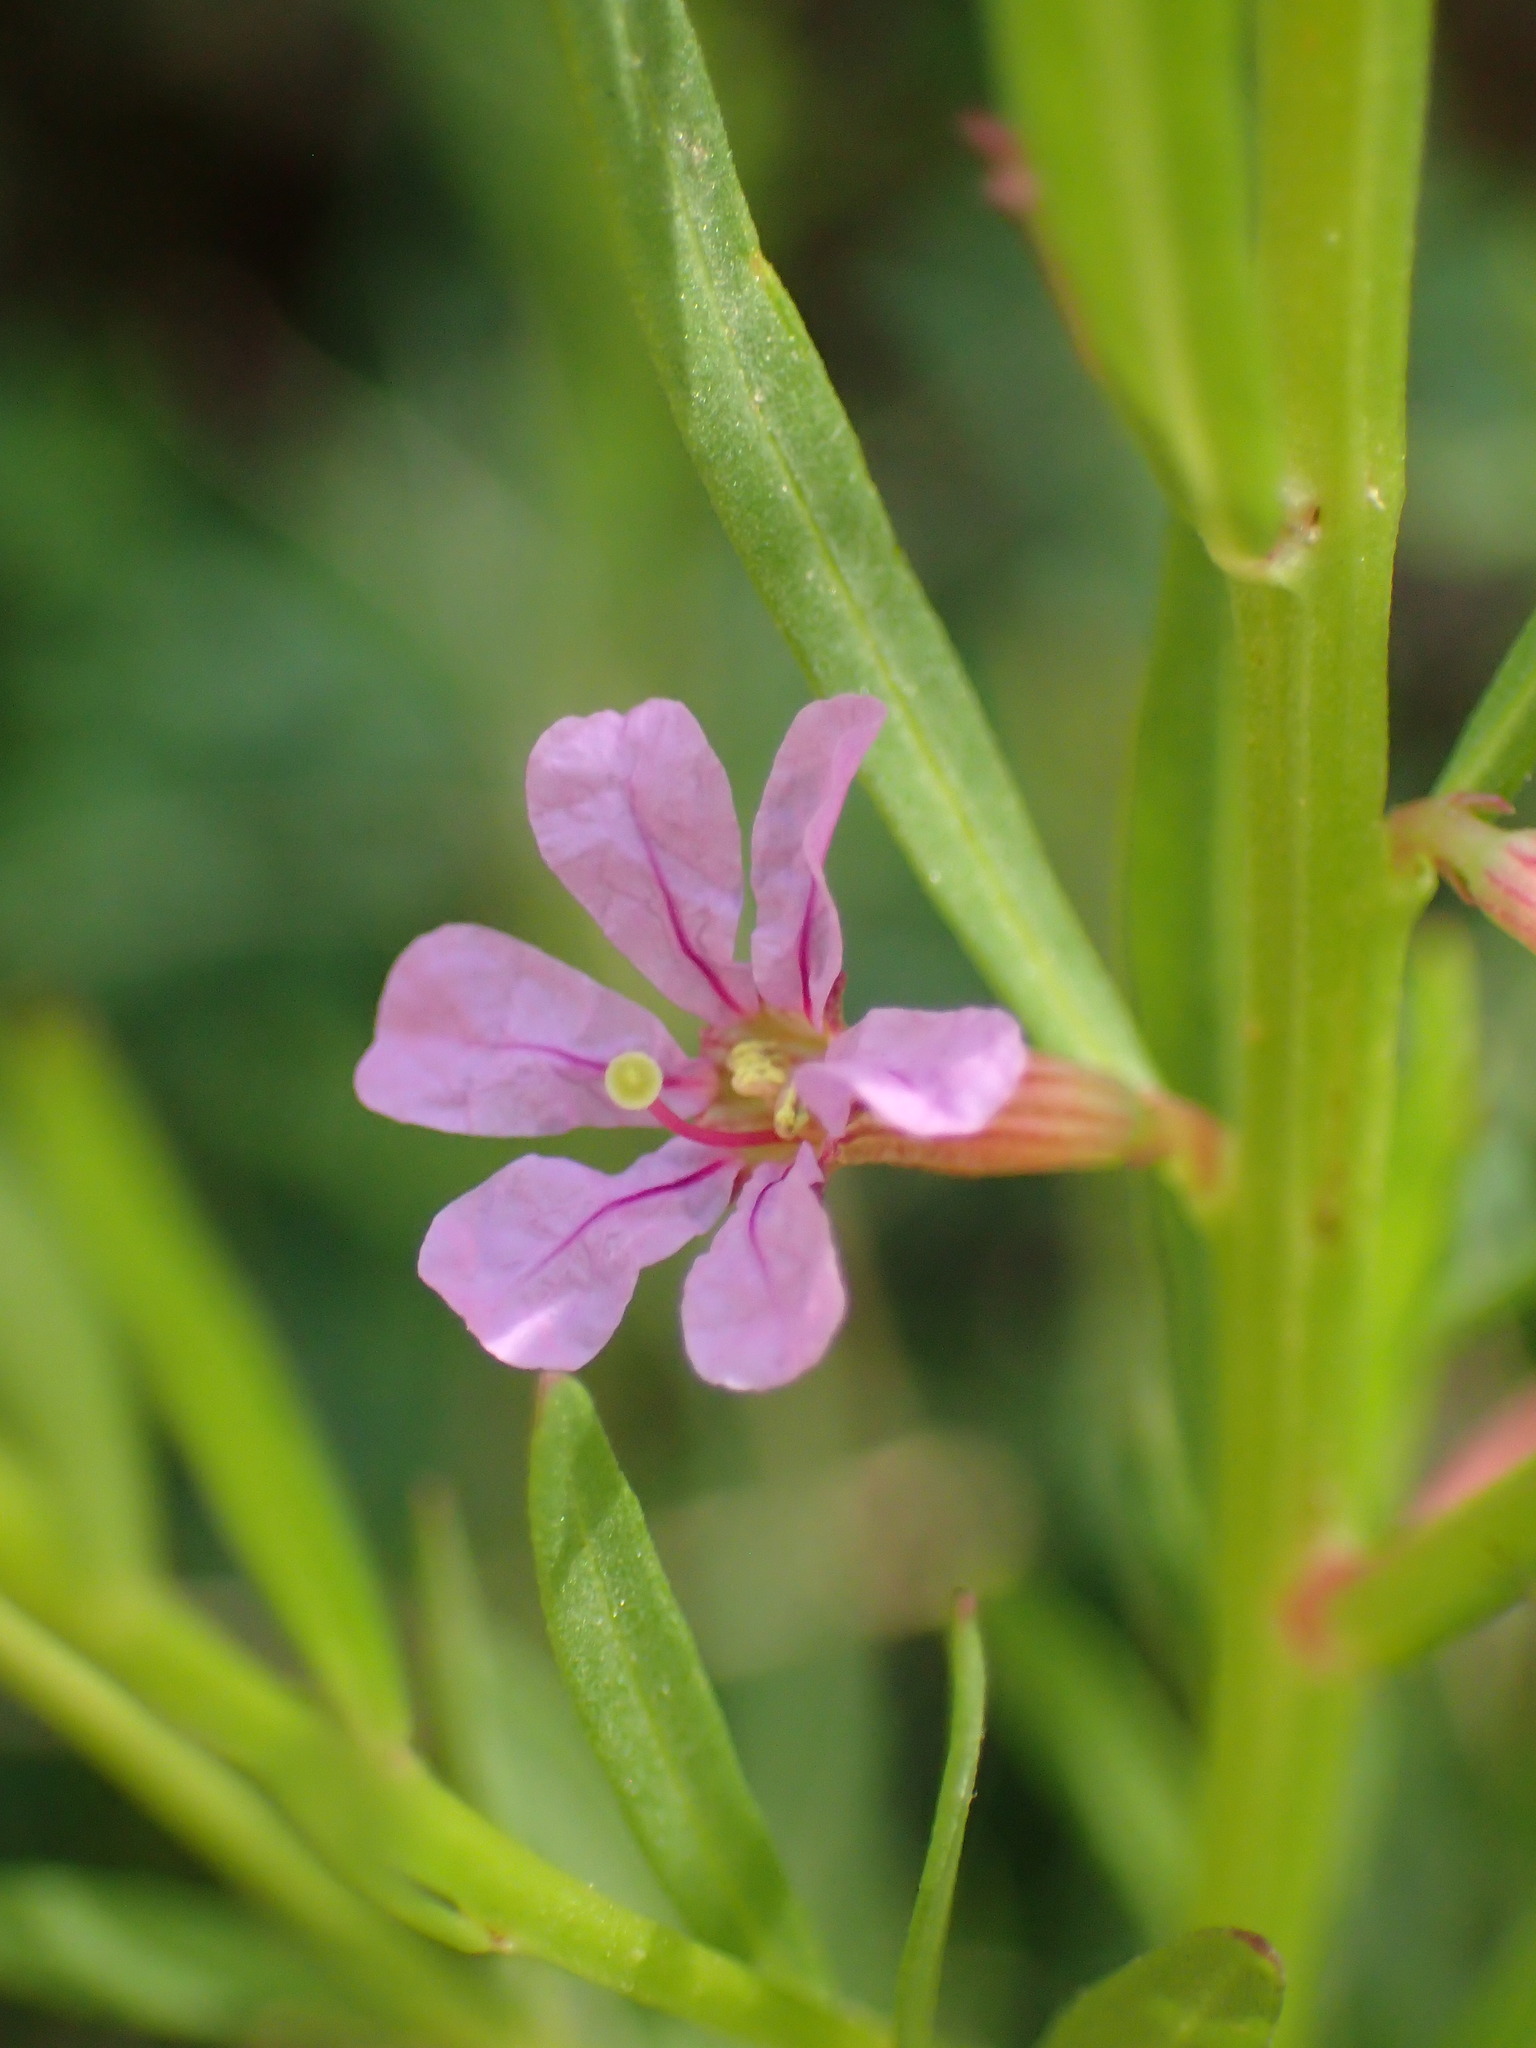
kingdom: Plantae
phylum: Tracheophyta
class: Magnoliopsida
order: Myrtales
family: Lythraceae
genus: Lythrum
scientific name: Lythrum californicum
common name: California loosestrife
